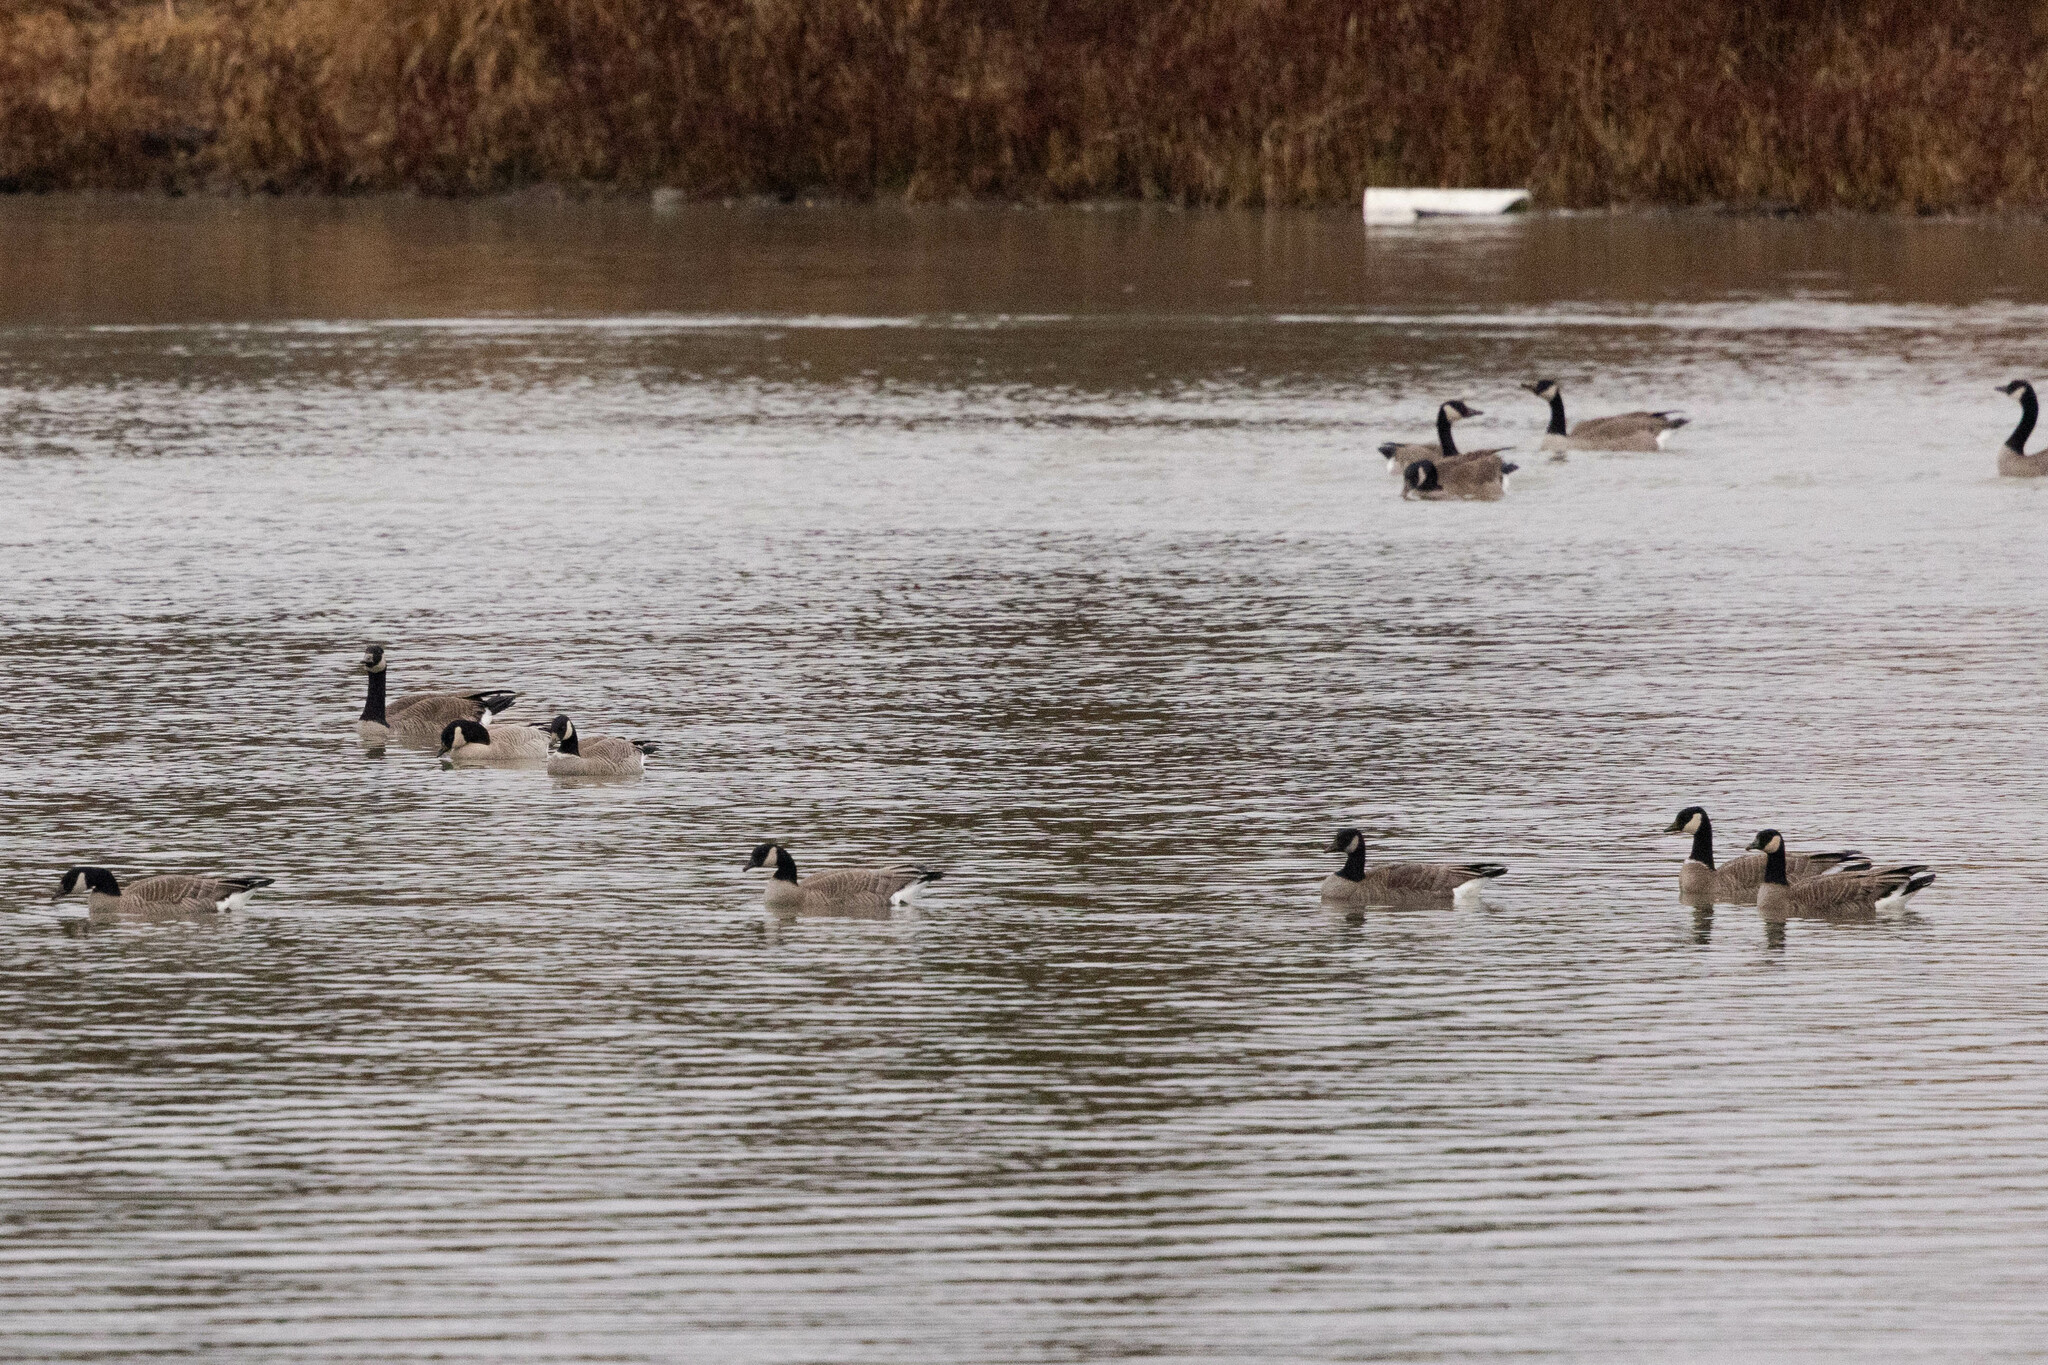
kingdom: Animalia
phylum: Chordata
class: Aves
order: Anseriformes
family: Anatidae
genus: Branta
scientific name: Branta hutchinsii
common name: Cackling goose
